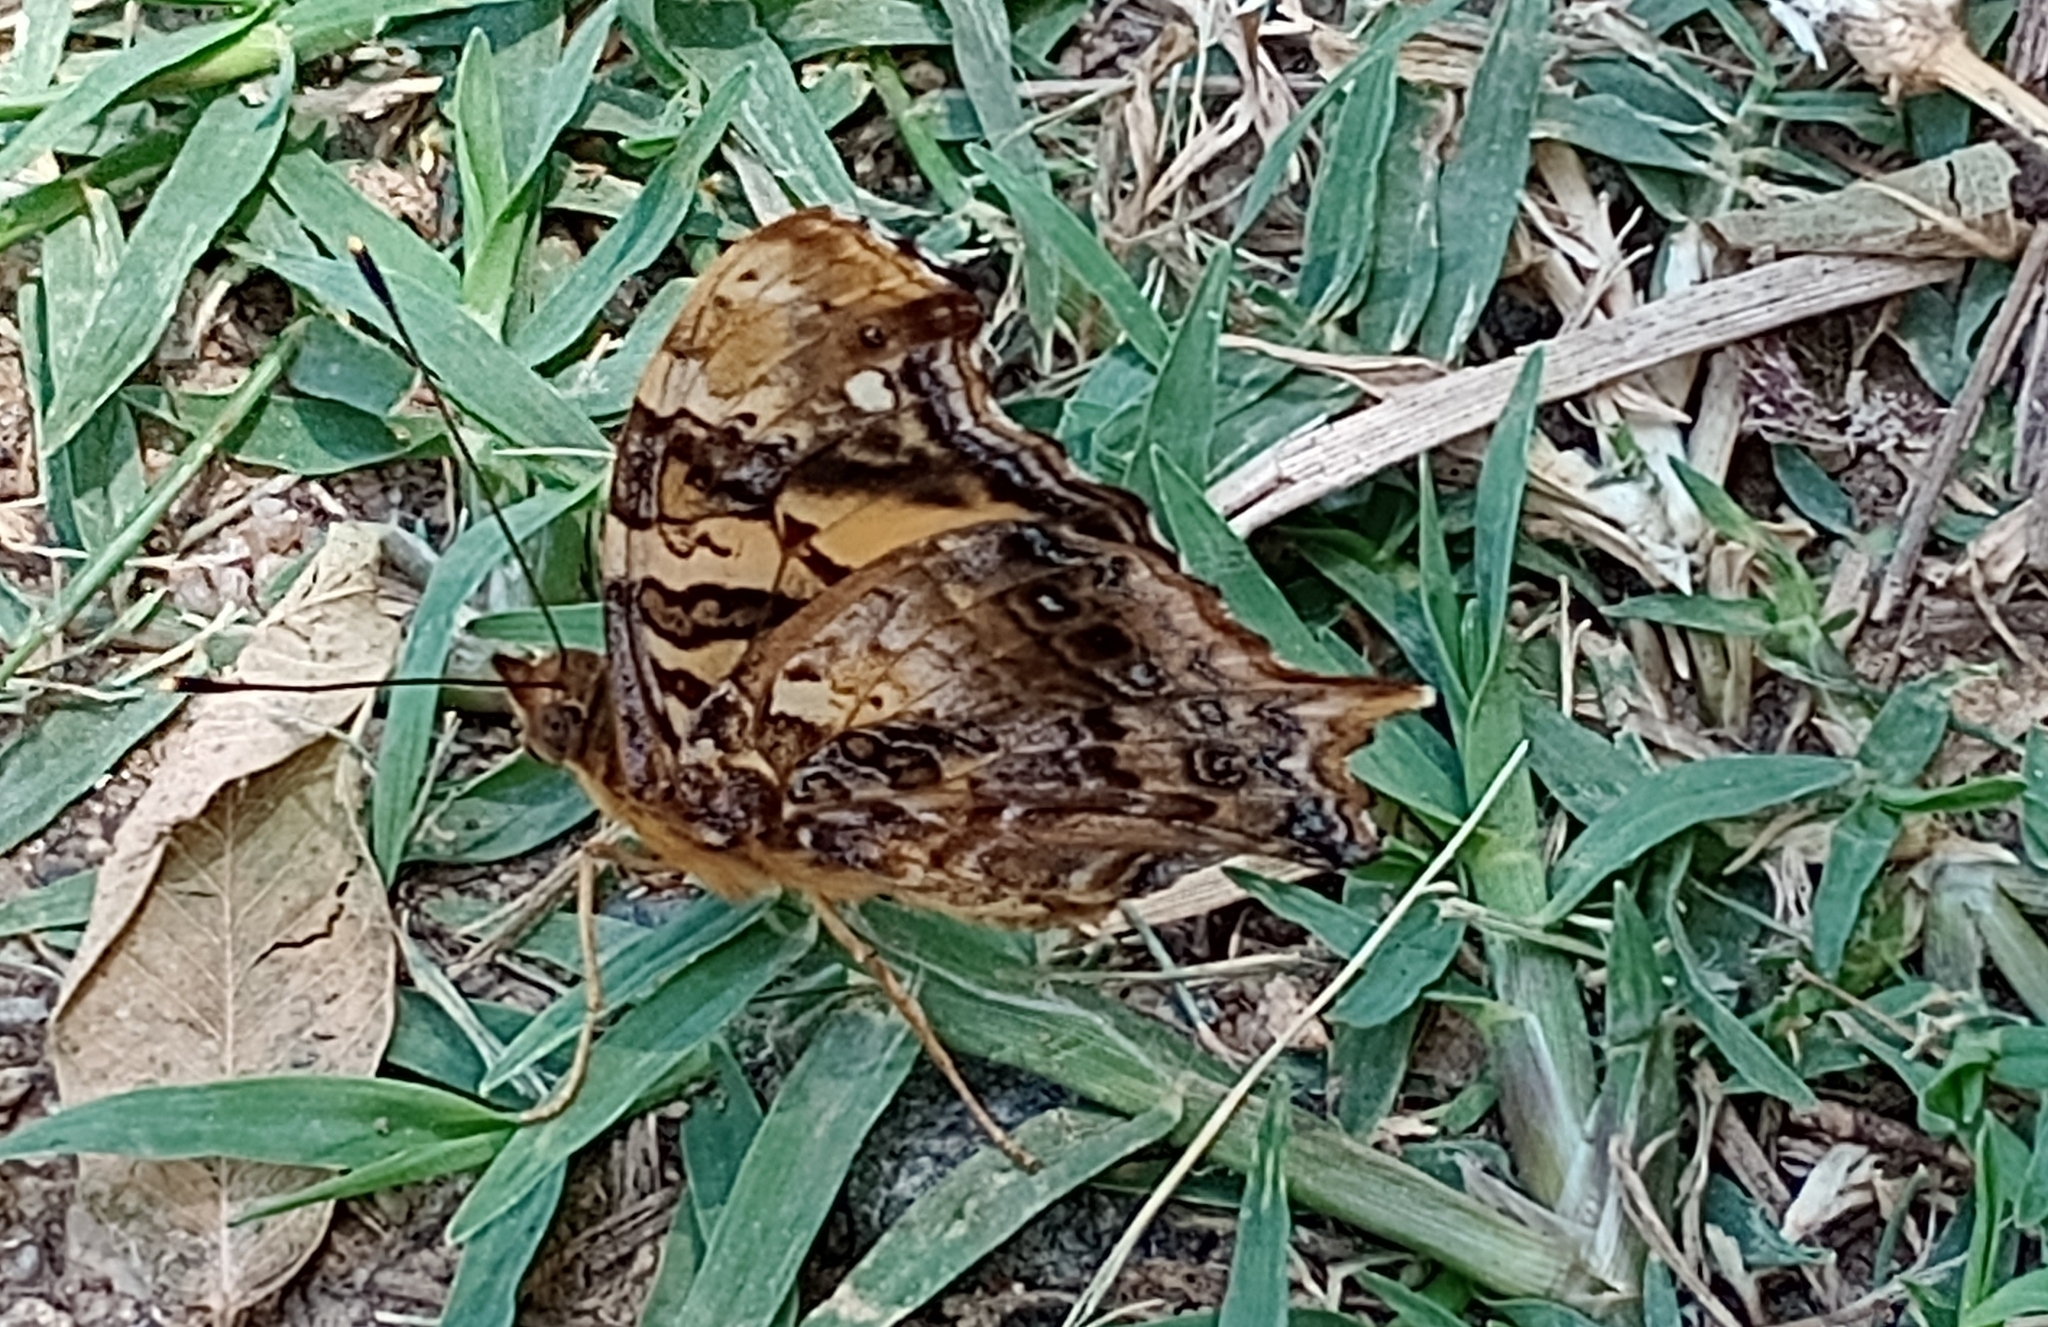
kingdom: Animalia
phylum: Arthropoda
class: Insecta
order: Lepidoptera
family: Nymphalidae
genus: Hypanartia
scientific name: Hypanartia bella
